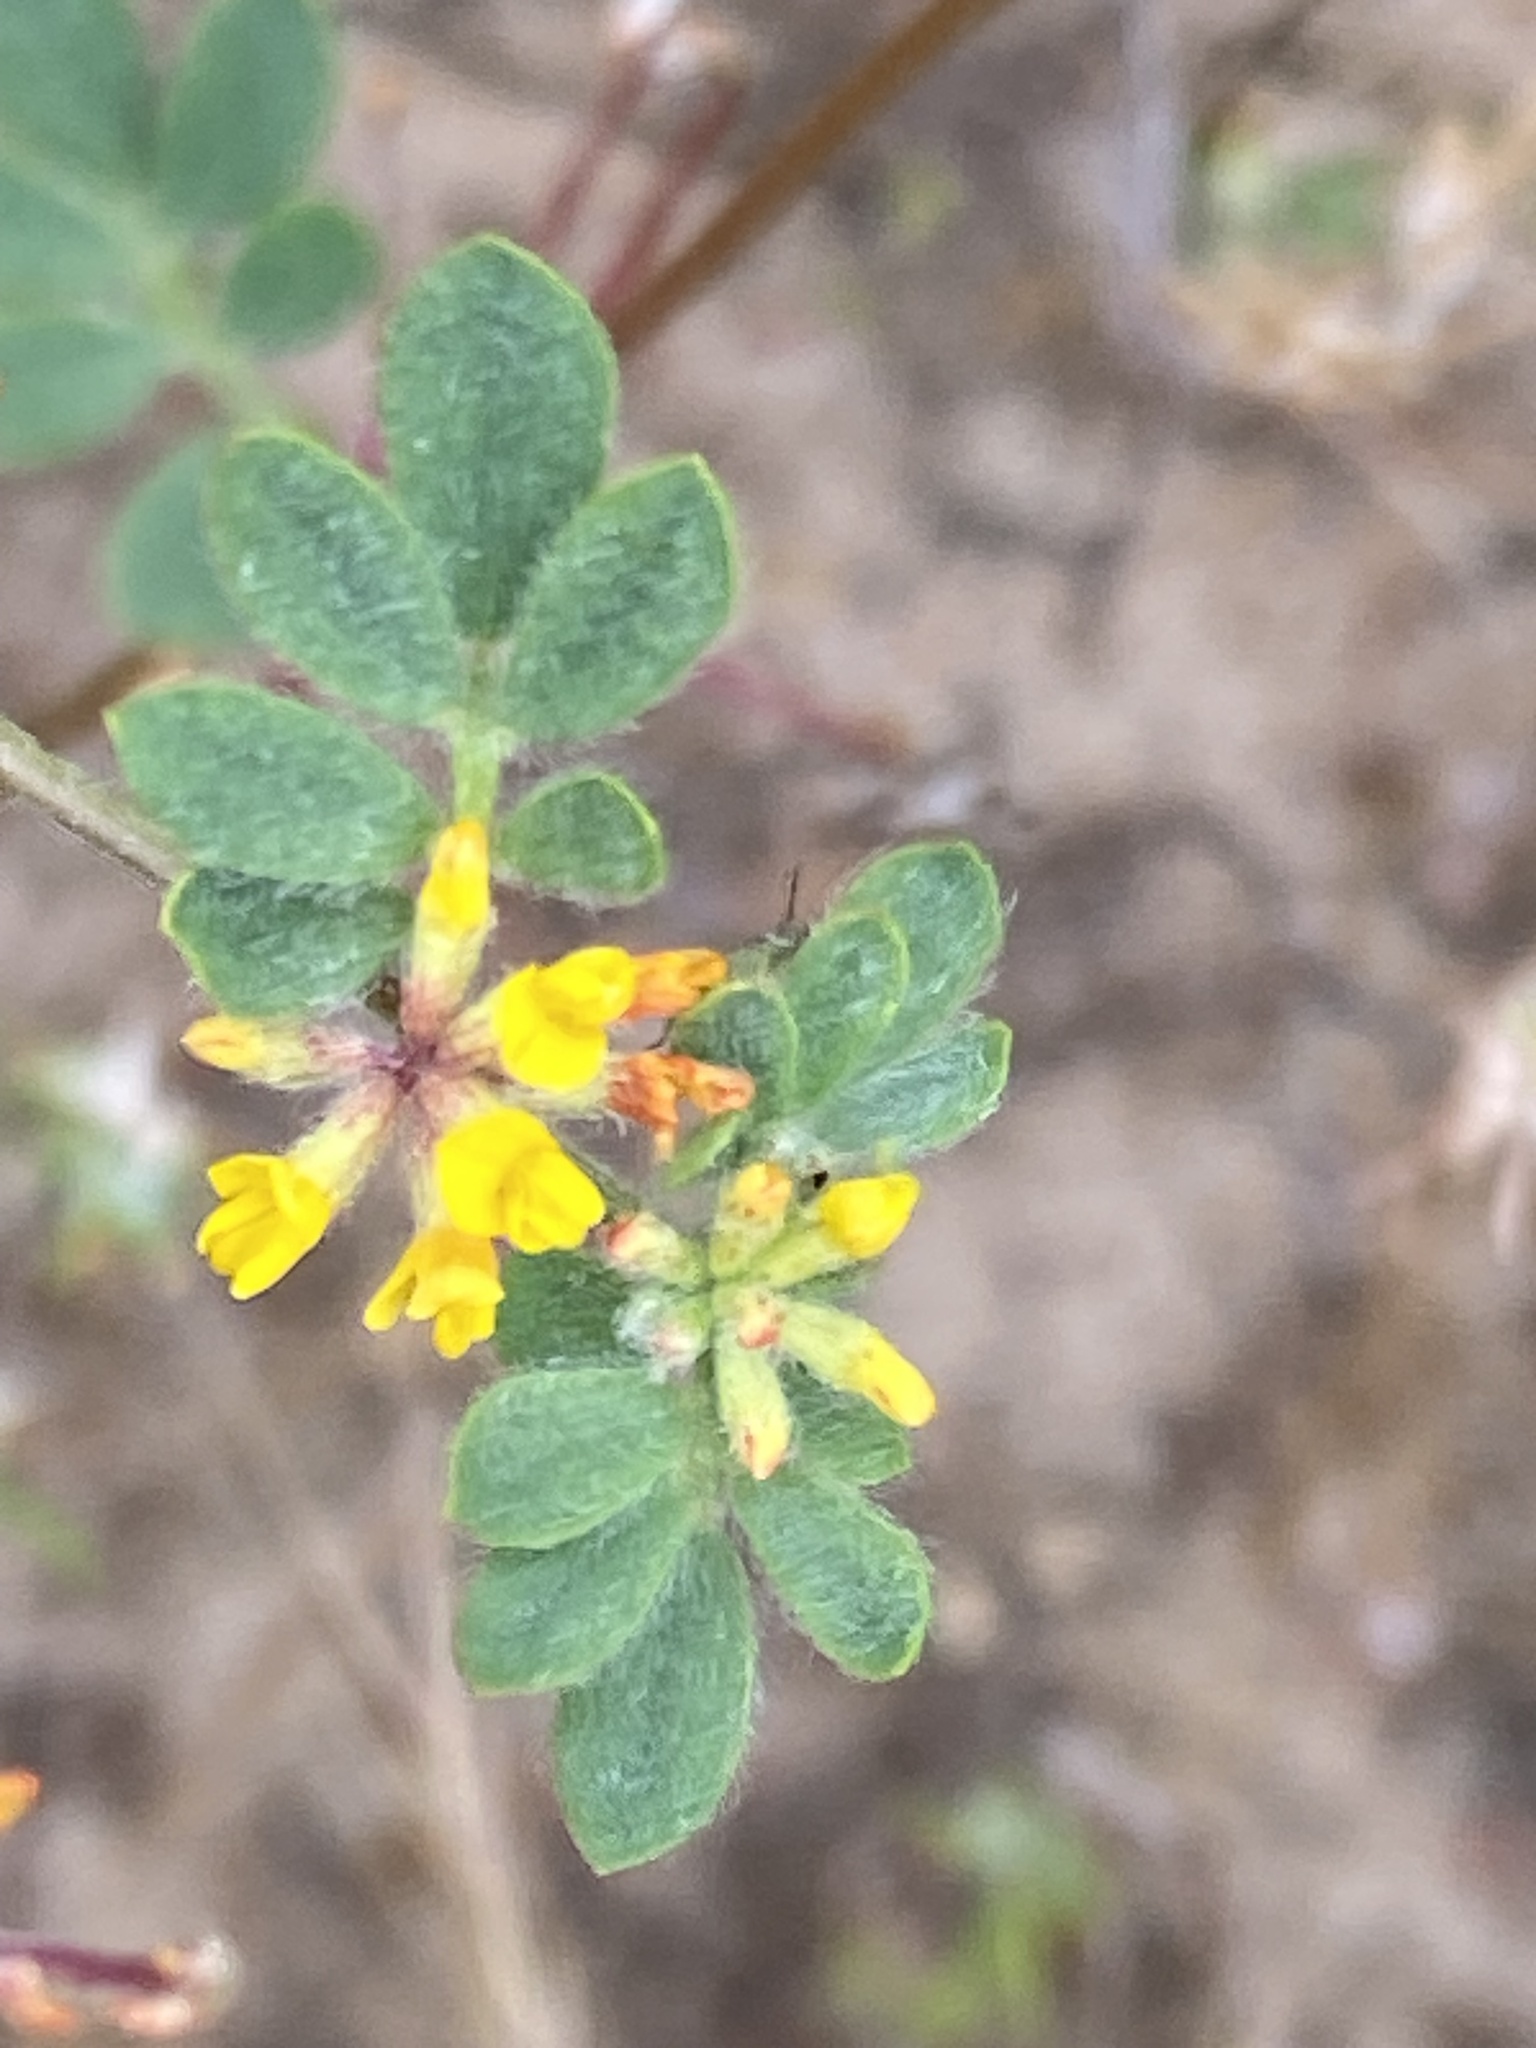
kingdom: Plantae
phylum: Tracheophyta
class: Magnoliopsida
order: Fabales
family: Fabaceae
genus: Acmispon
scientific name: Acmispon micranthus
